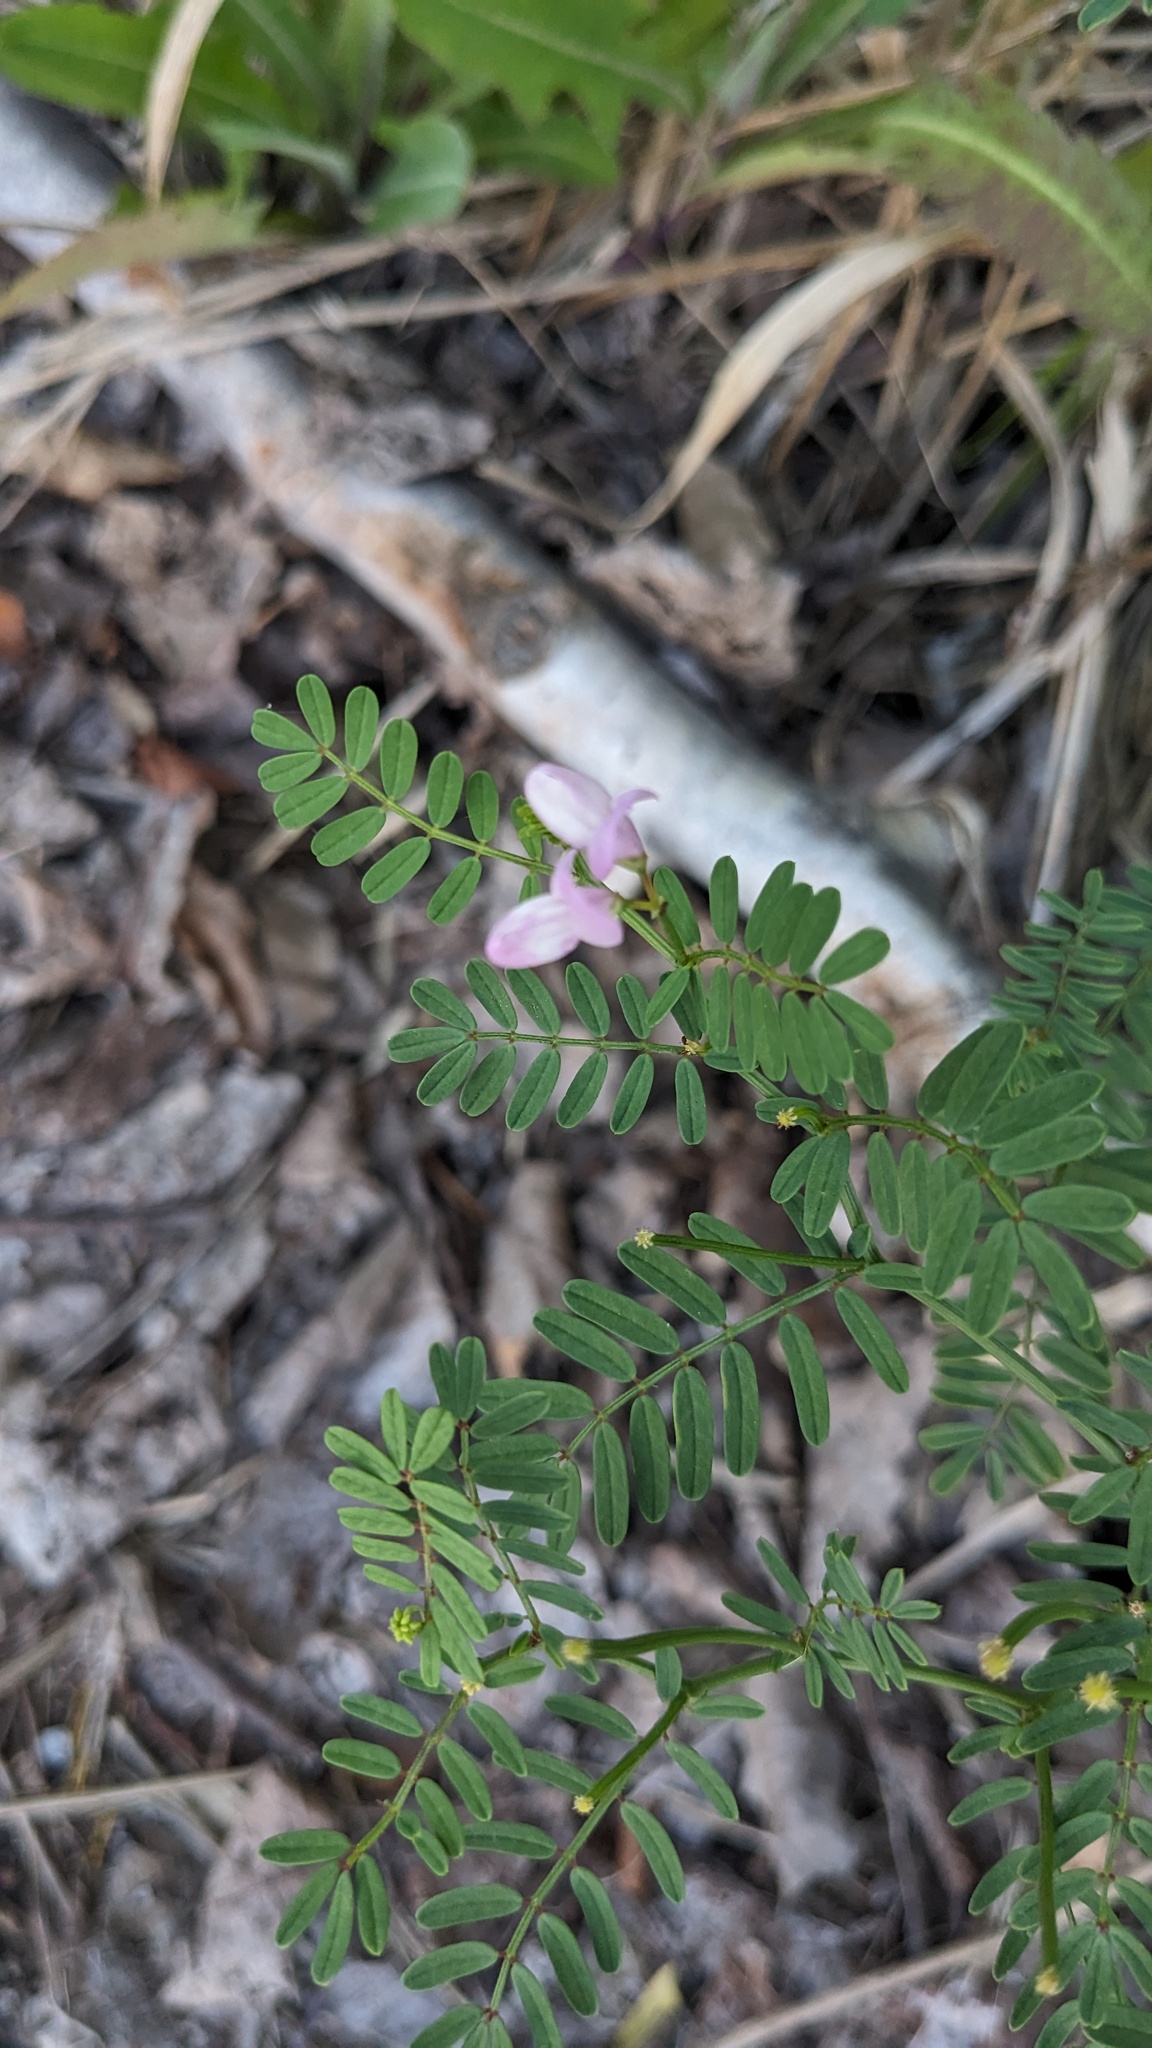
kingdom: Plantae
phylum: Tracheophyta
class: Magnoliopsida
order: Fabales
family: Fabaceae
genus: Coronilla
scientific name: Coronilla varia
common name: Crownvetch
